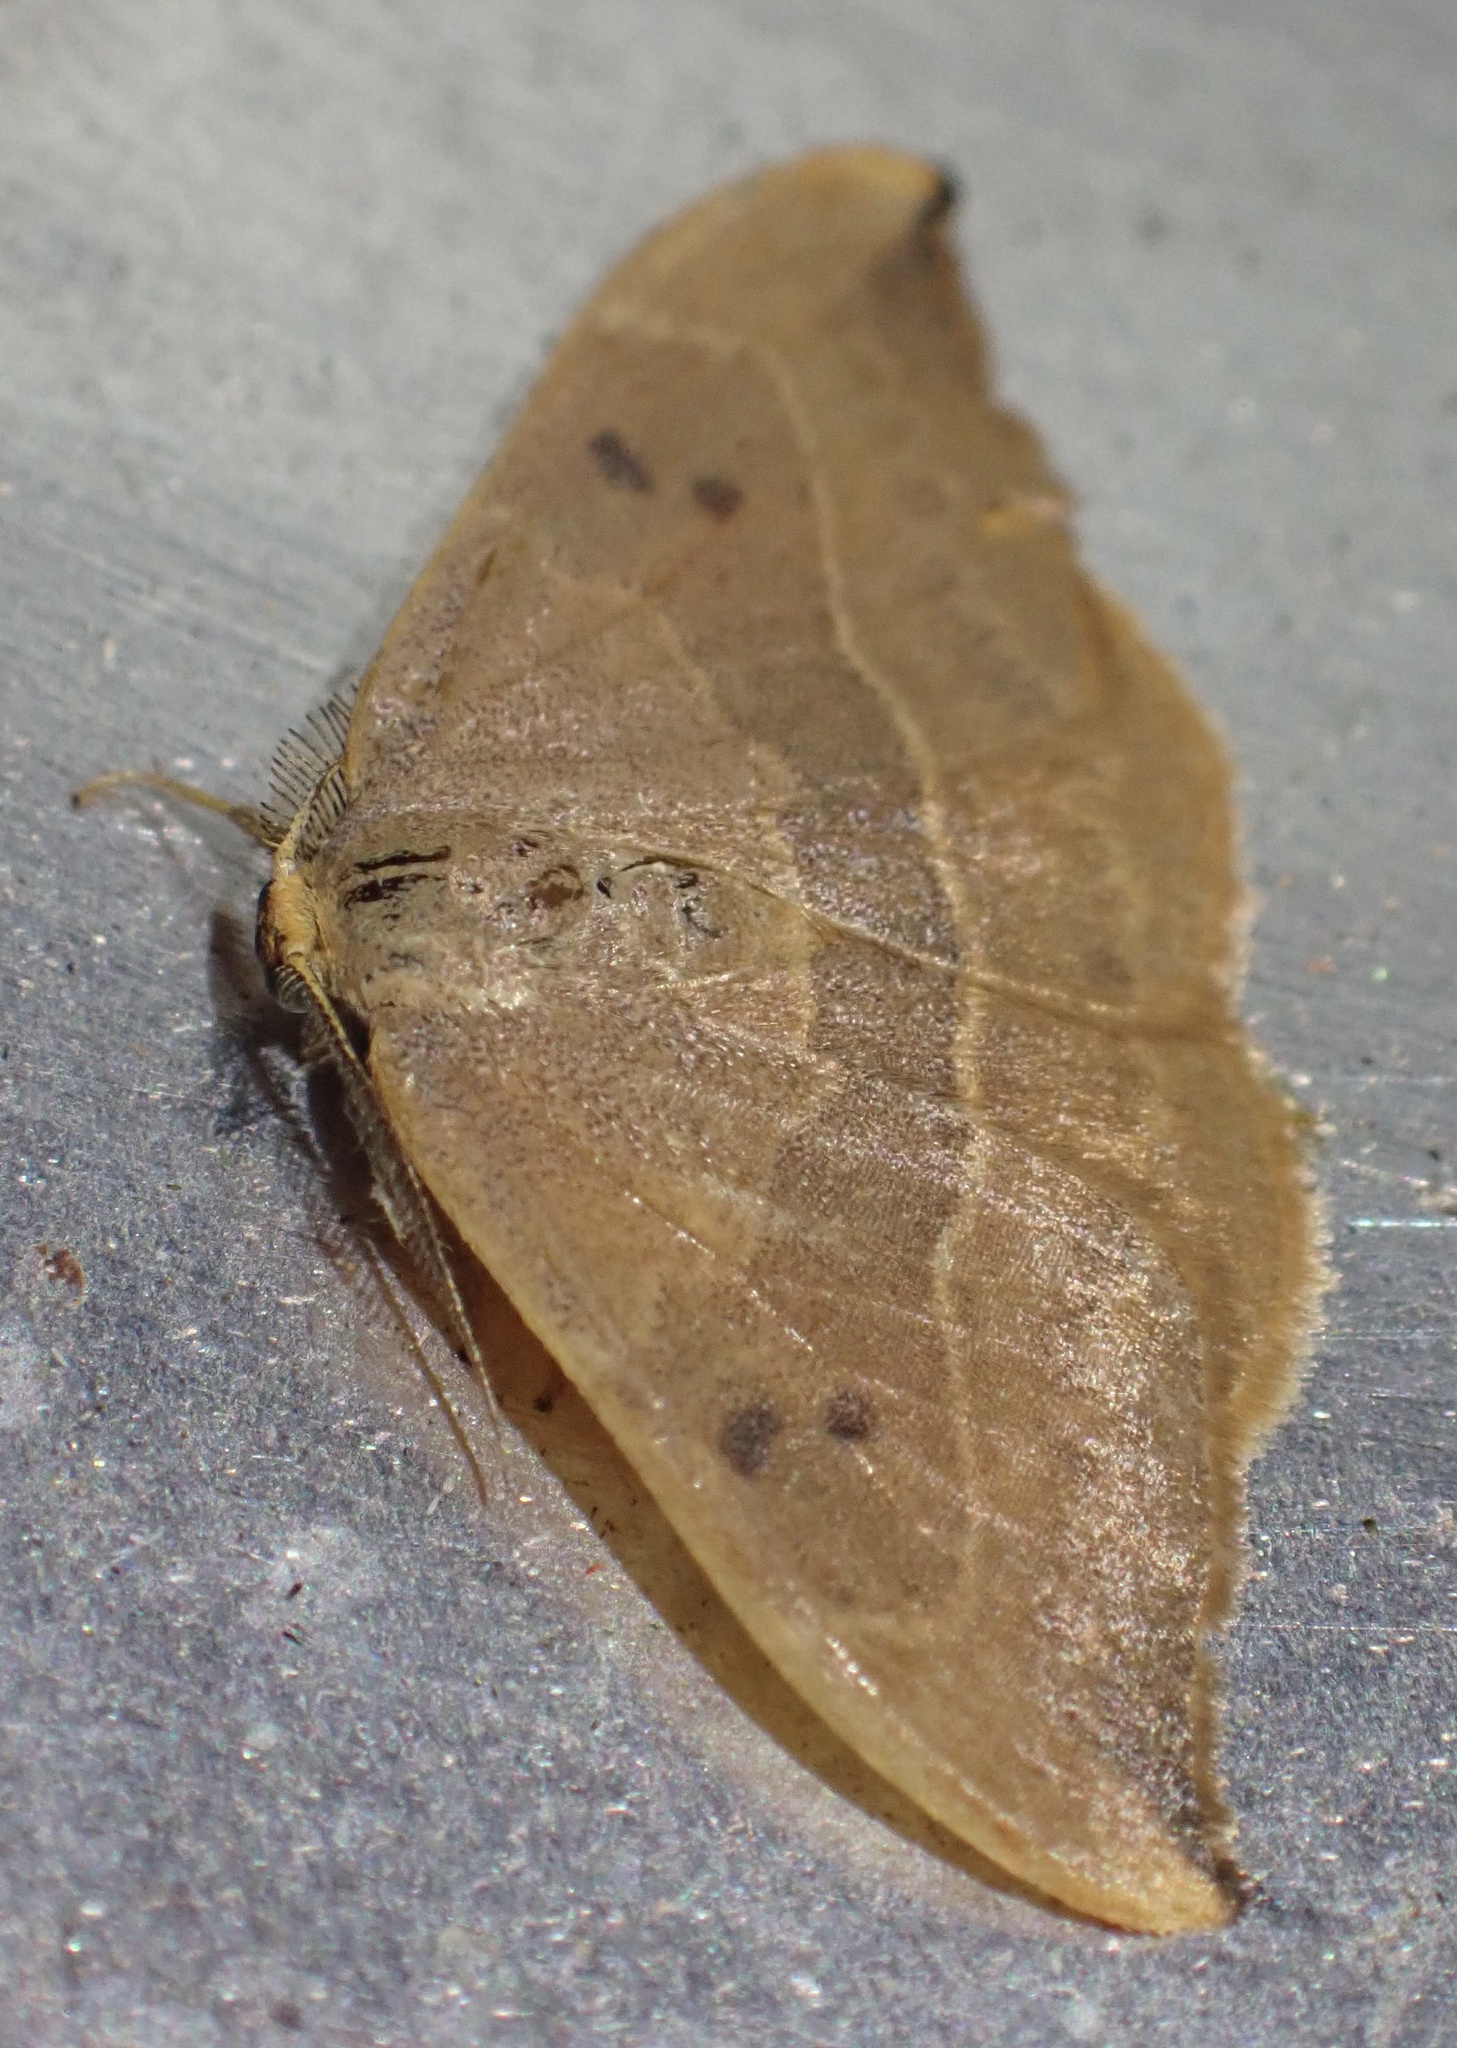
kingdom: Animalia
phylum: Arthropoda
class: Insecta
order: Lepidoptera
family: Drepanidae
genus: Watsonalla
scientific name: Watsonalla binaria
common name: Oak hook-tip
